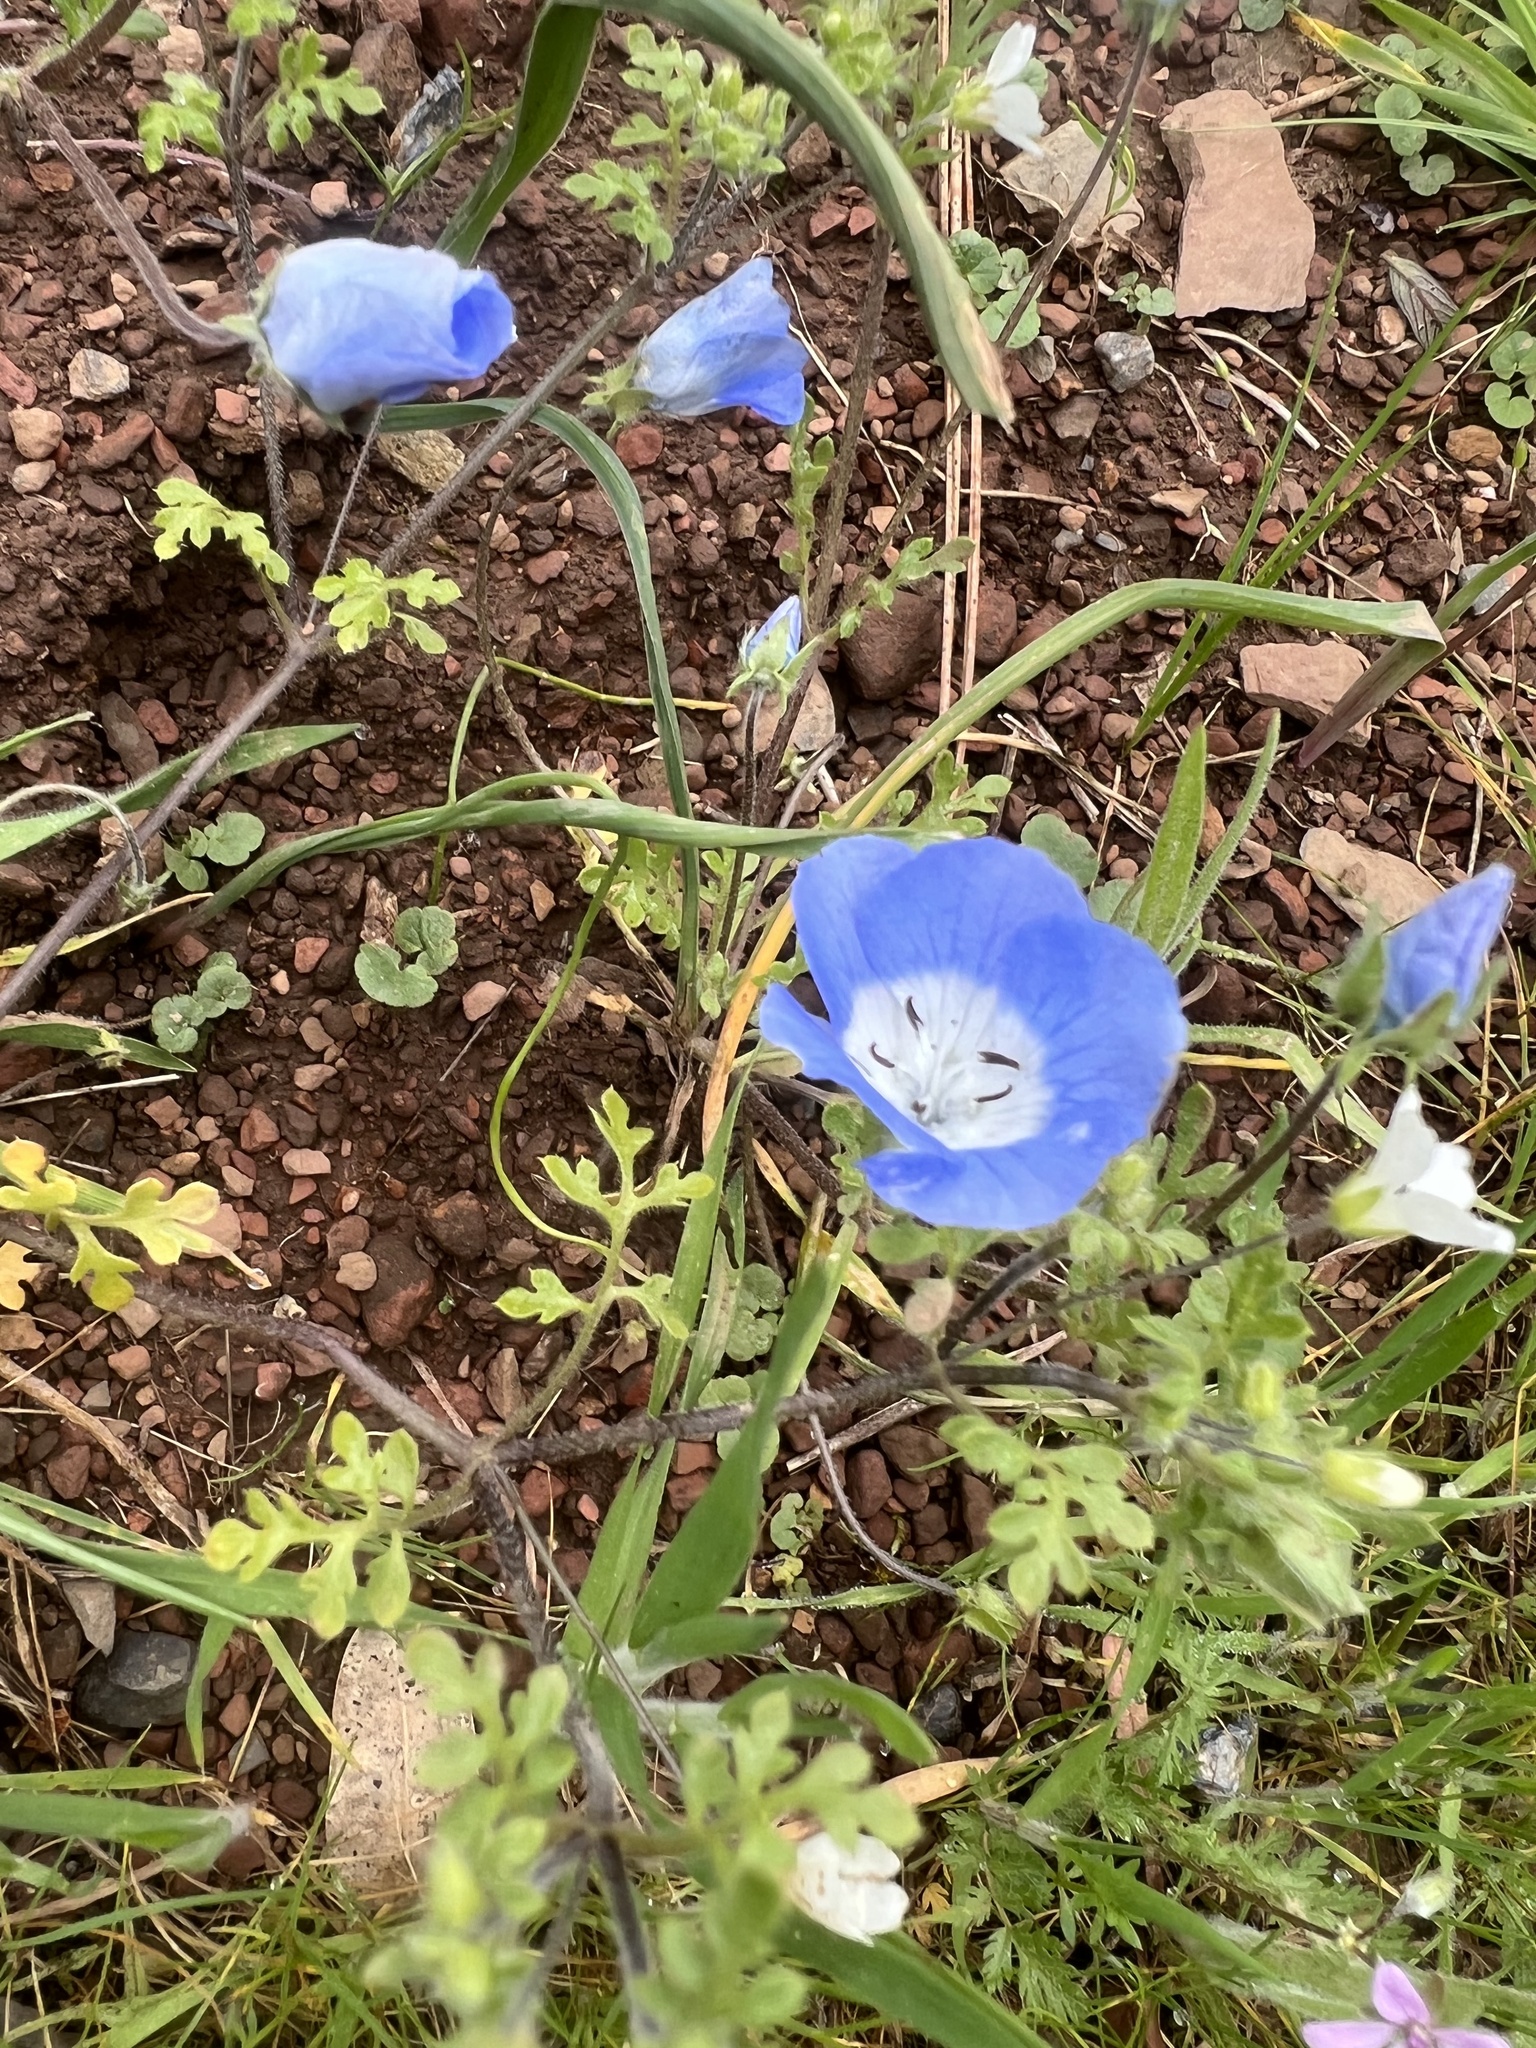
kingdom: Plantae
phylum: Tracheophyta
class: Magnoliopsida
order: Boraginales
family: Hydrophyllaceae
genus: Nemophila
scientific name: Nemophila menziesii
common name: Baby's-blue-eyes
